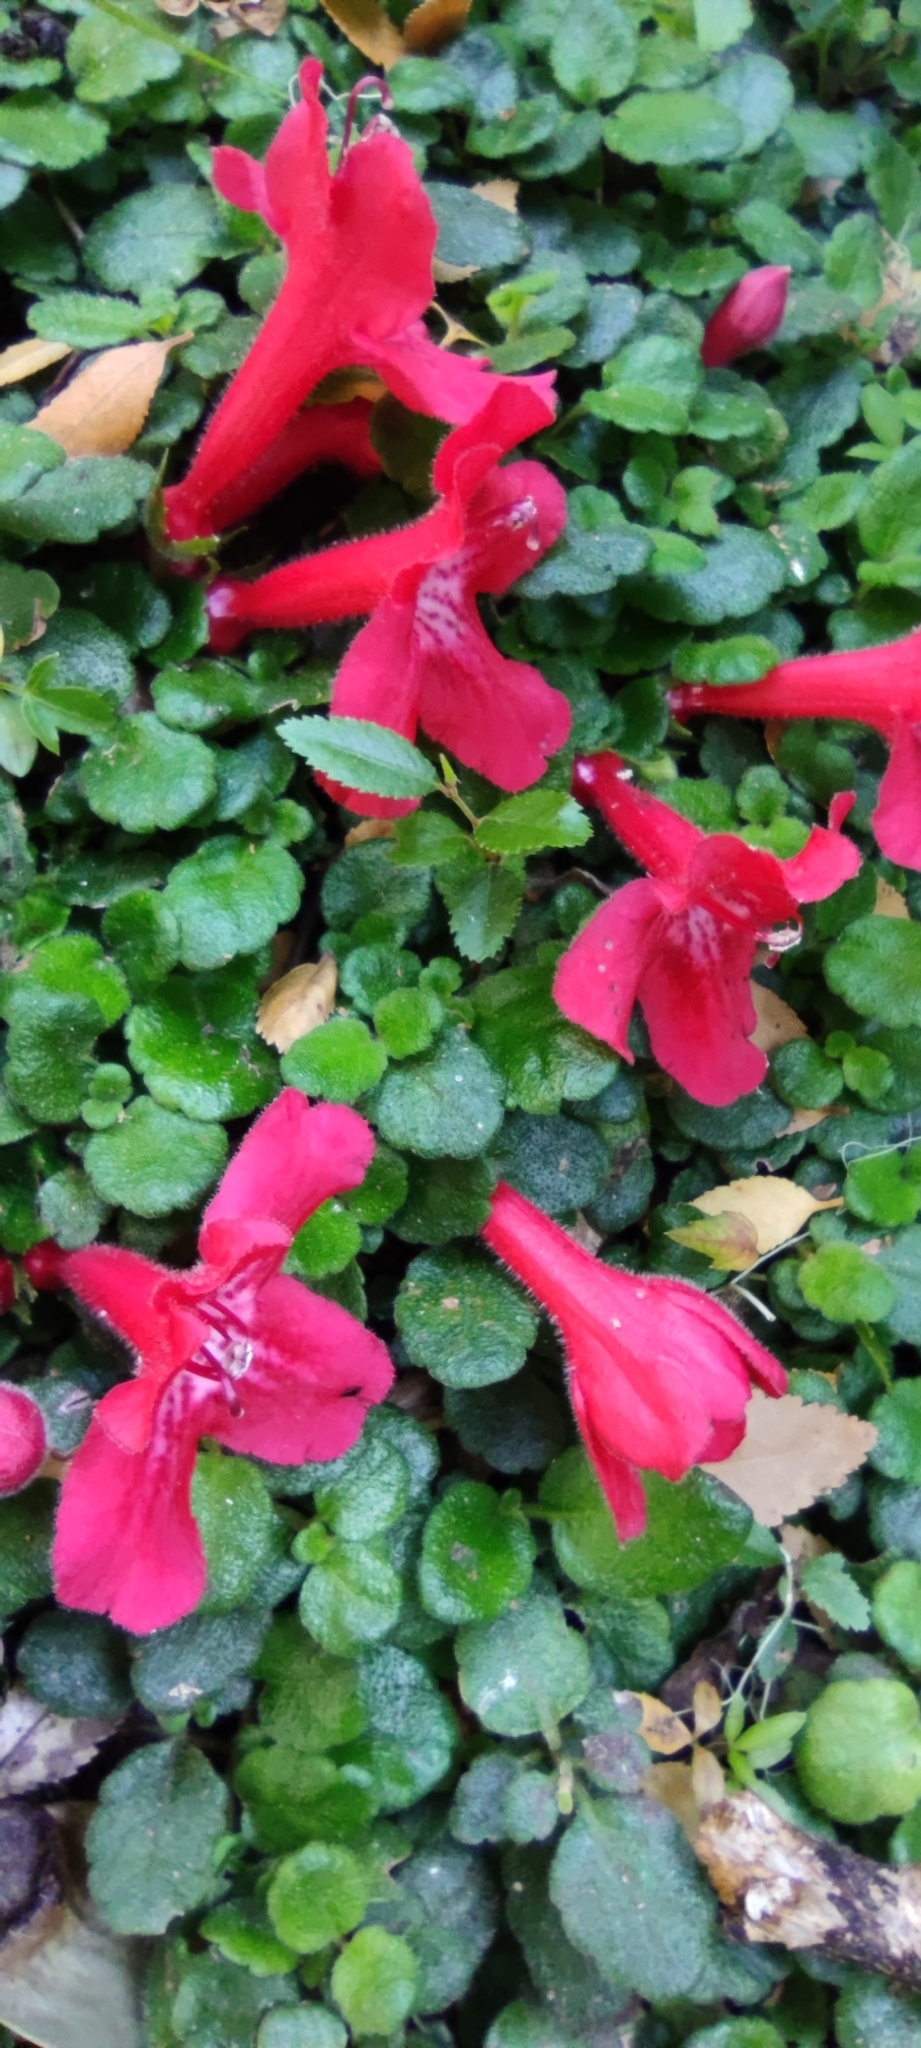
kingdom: Plantae
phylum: Tracheophyta
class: Magnoliopsida
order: Lamiales
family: Gesneriaceae
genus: Asteranthera
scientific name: Asteranthera ovata
